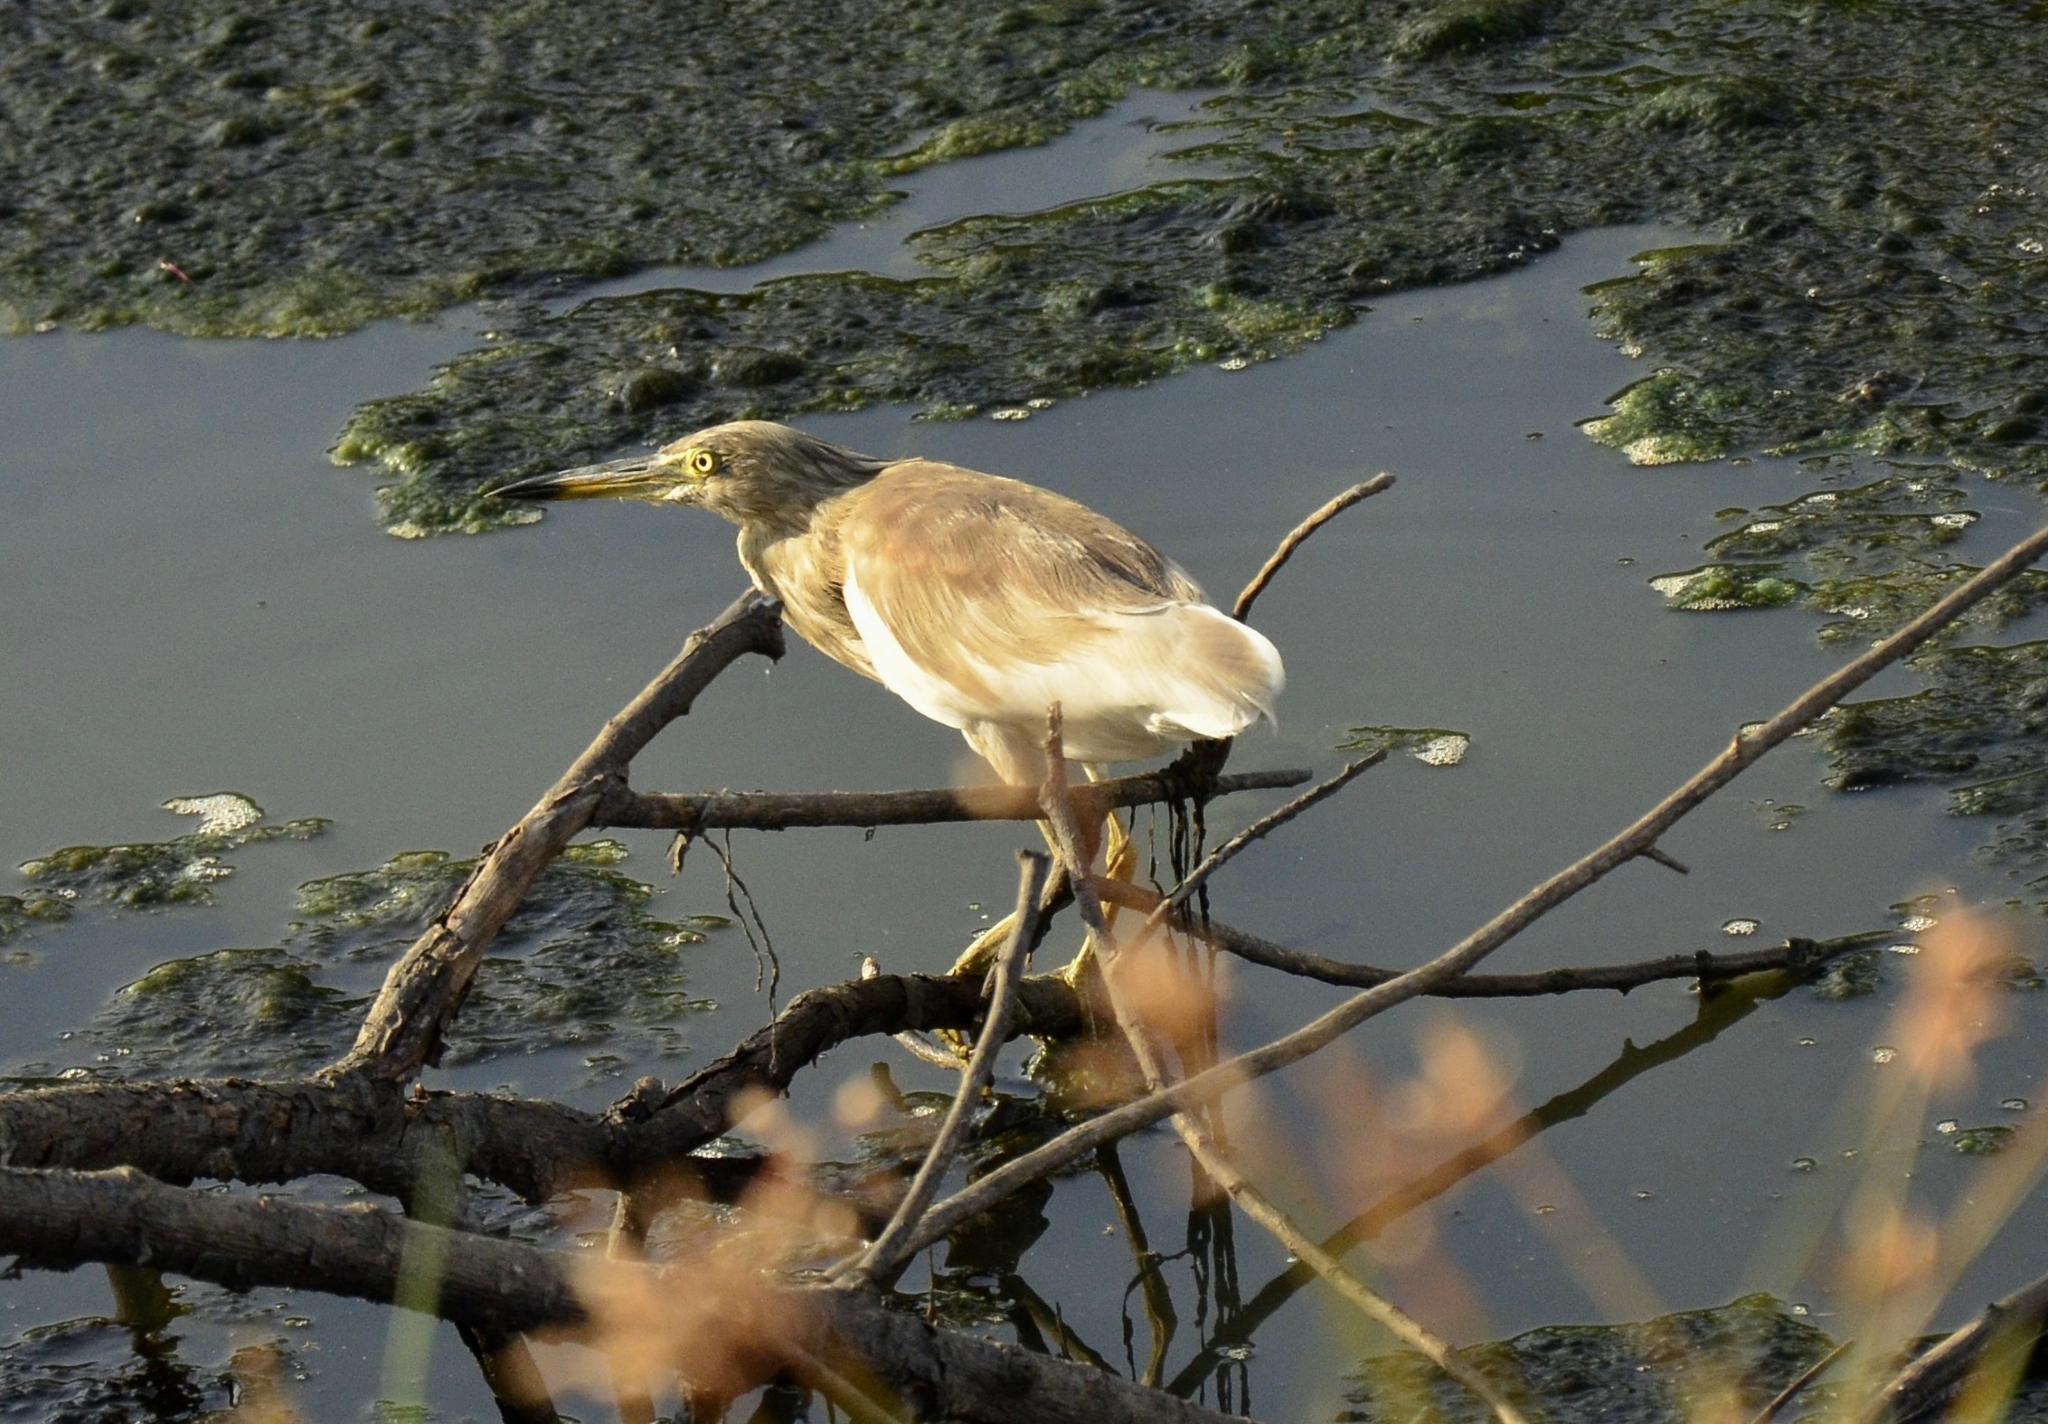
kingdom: Animalia
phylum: Chordata
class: Aves
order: Pelecaniformes
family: Ardeidae
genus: Ardeola
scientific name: Ardeola grayii
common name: Indian pond heron
